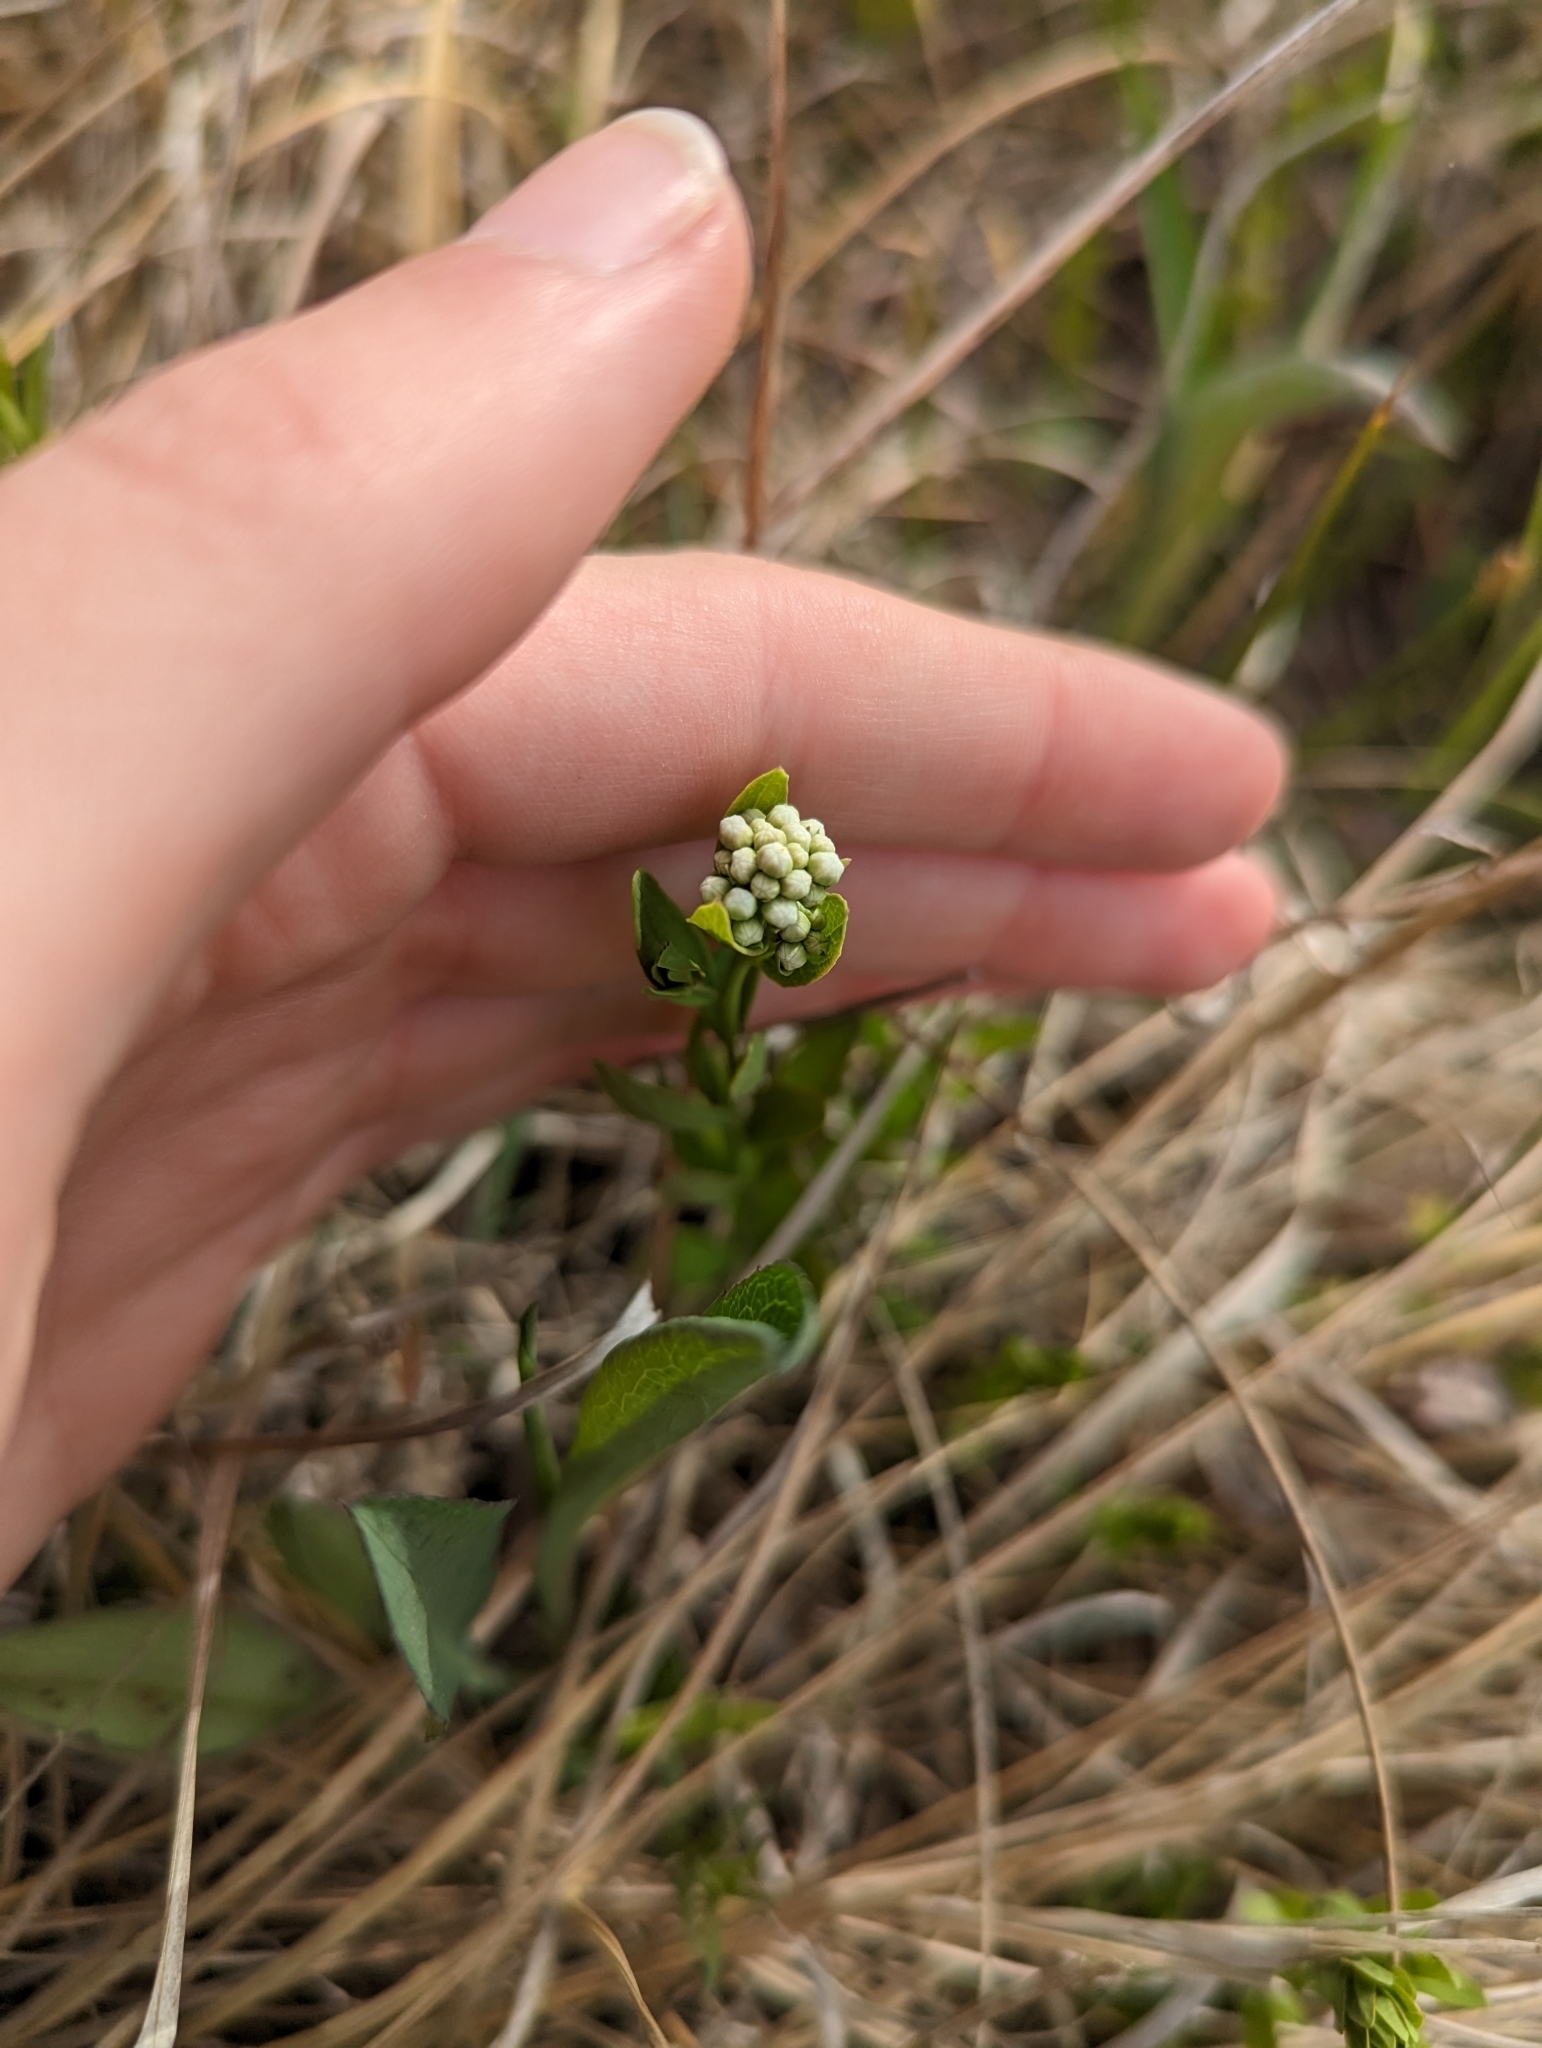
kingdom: Plantae
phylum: Tracheophyta
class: Magnoliopsida
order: Santalales
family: Comandraceae
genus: Comandra
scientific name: Comandra umbellata
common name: Bastard toadflax
